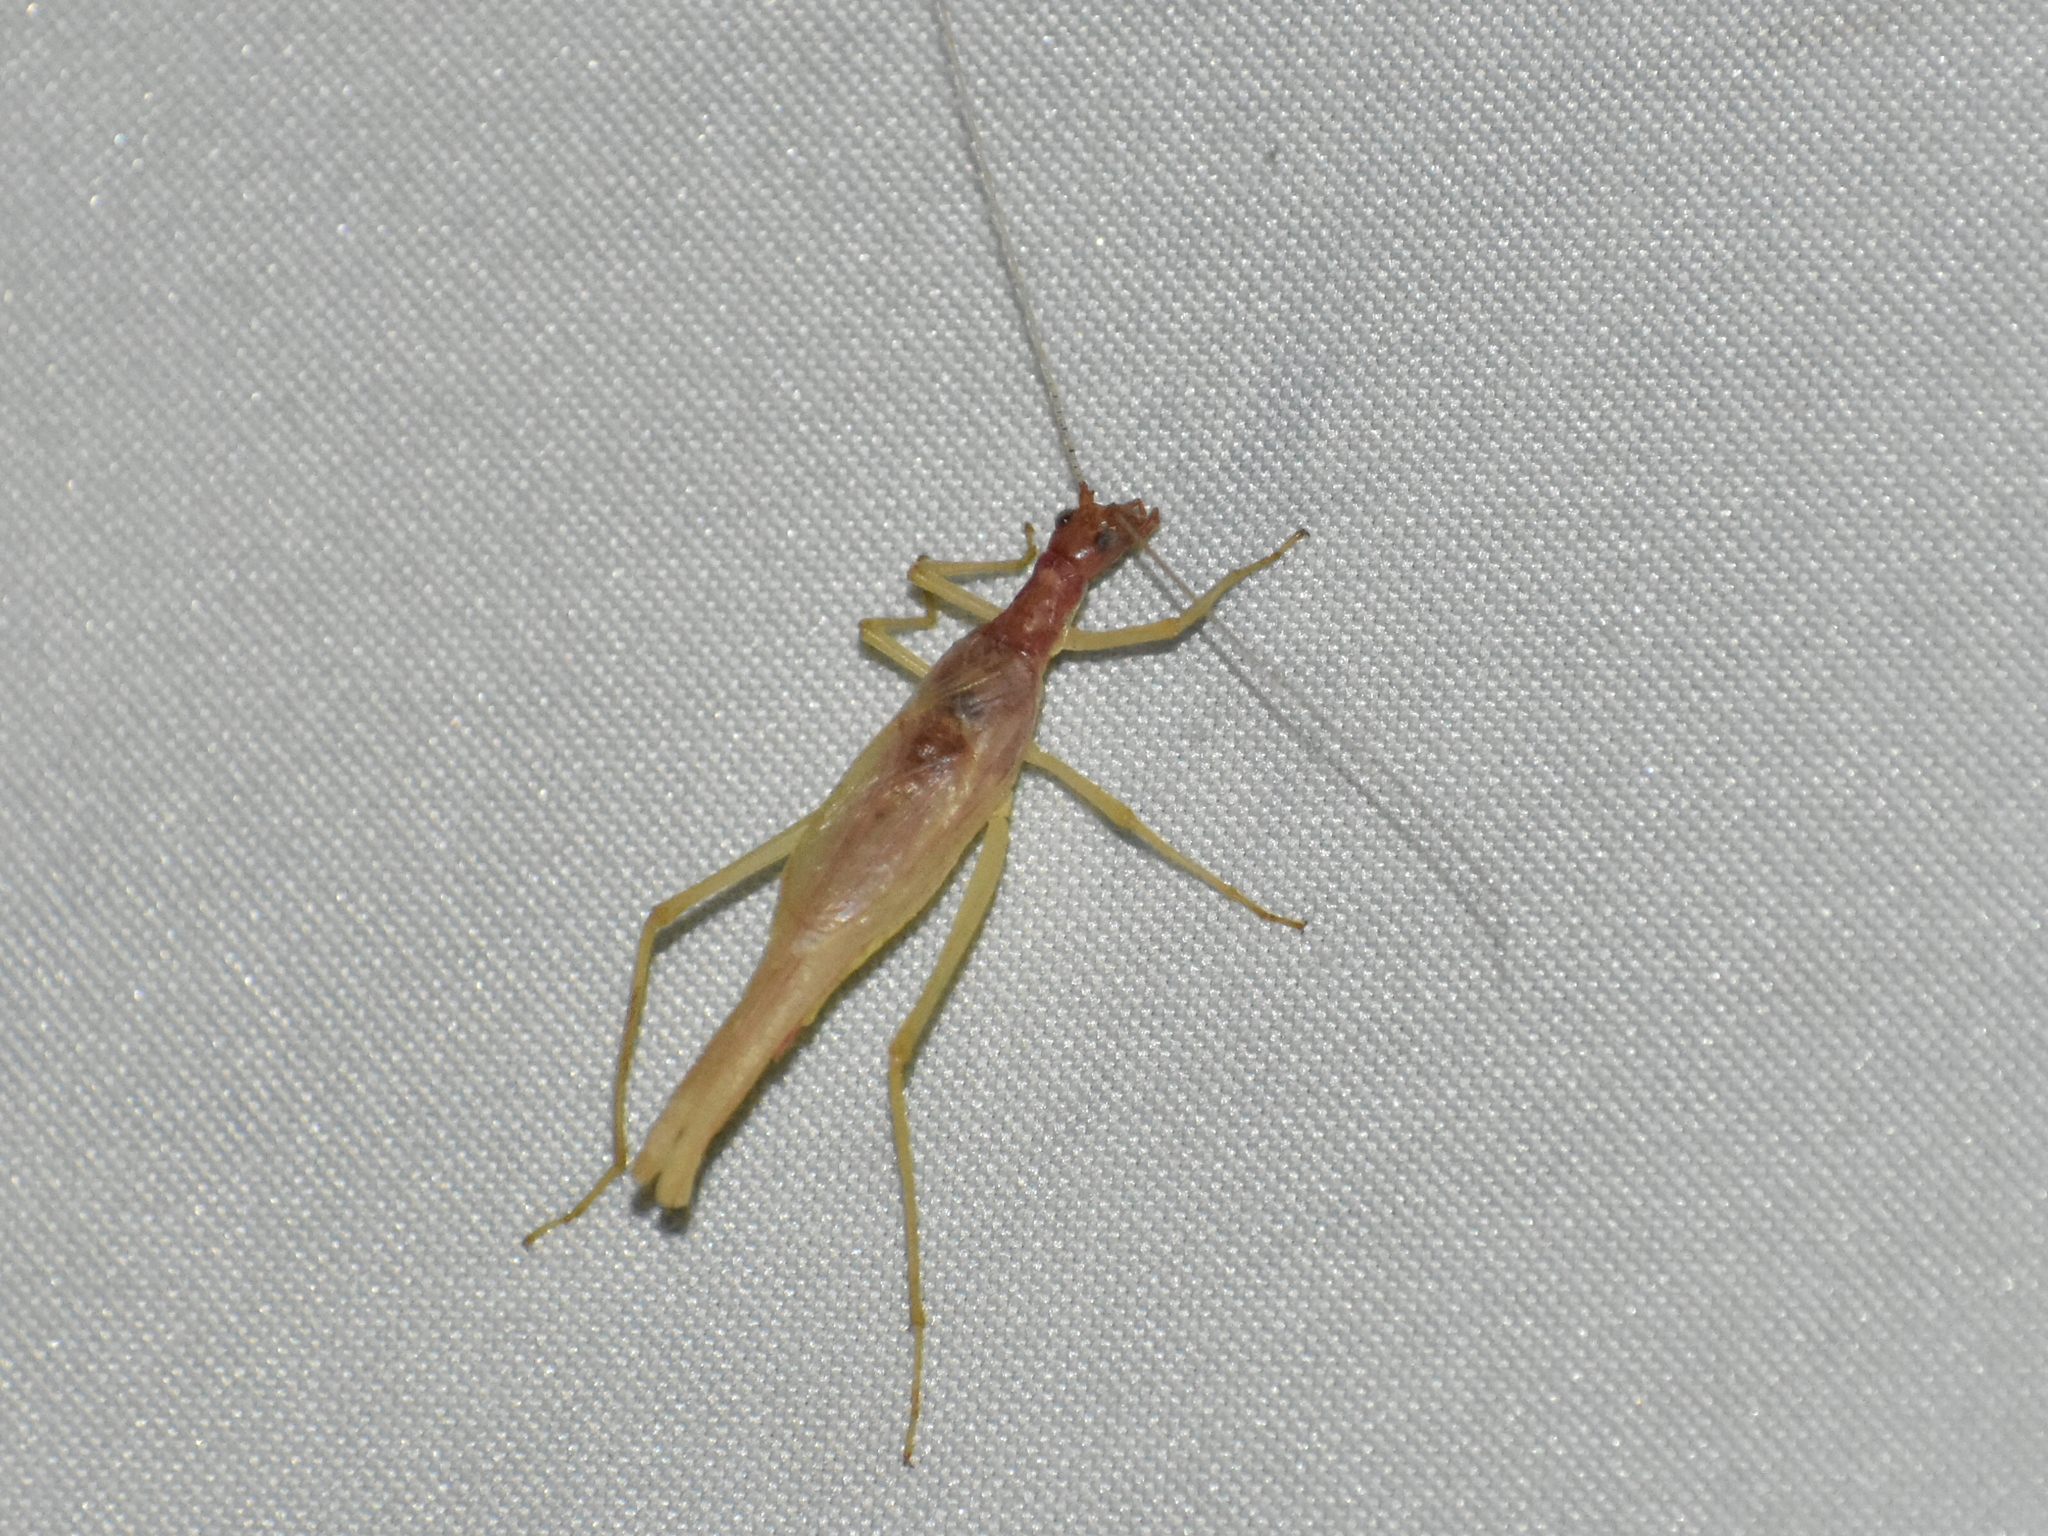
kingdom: Animalia
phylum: Arthropoda
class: Insecta
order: Orthoptera
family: Gryllidae
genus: Neoxabea
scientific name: Neoxabea bipunctata
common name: Two-spotted tree cricket
